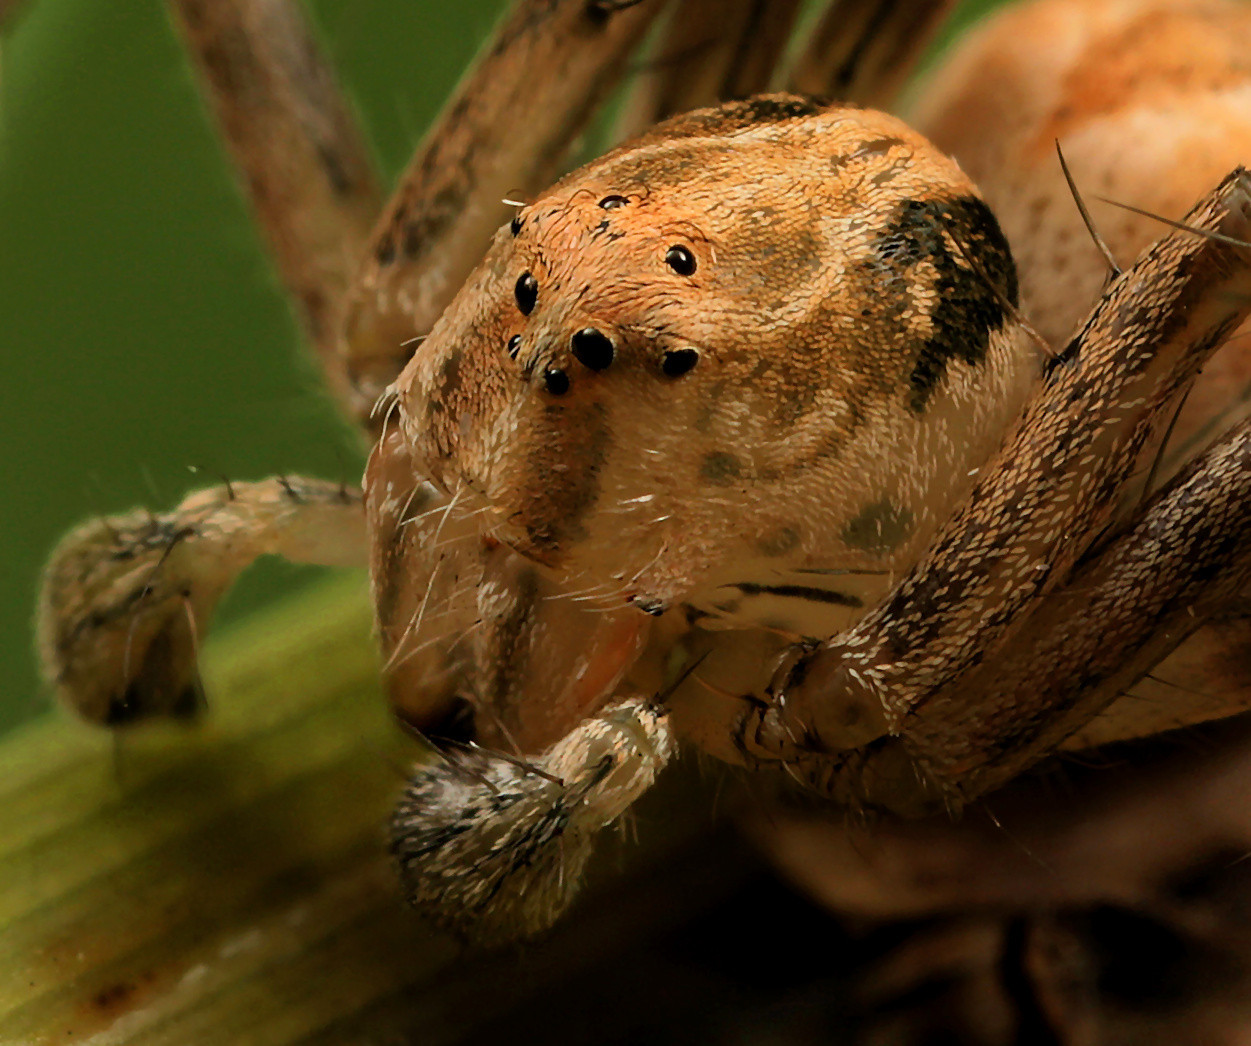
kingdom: Animalia
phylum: Arthropoda
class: Arachnida
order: Araneae
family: Oxyopidae
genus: Oxyopes
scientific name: Oxyopes hoggi
